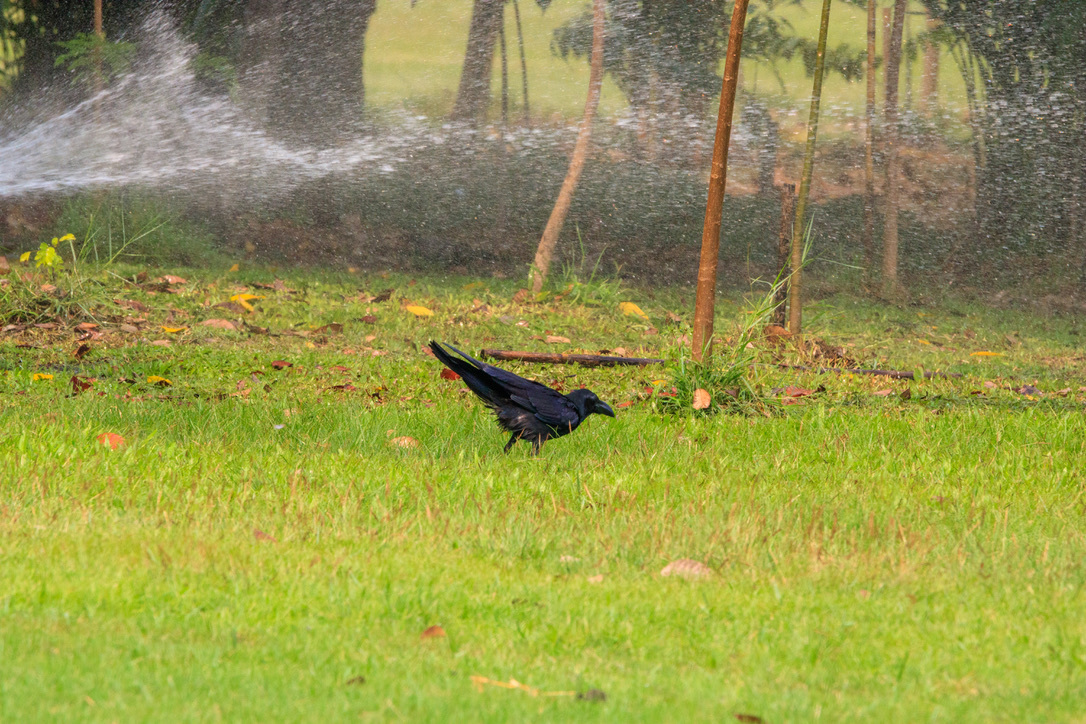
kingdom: Animalia
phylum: Chordata
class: Aves
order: Passeriformes
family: Corvidae
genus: Corvus
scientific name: Corvus macrorhynchos
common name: Large-billed crow
